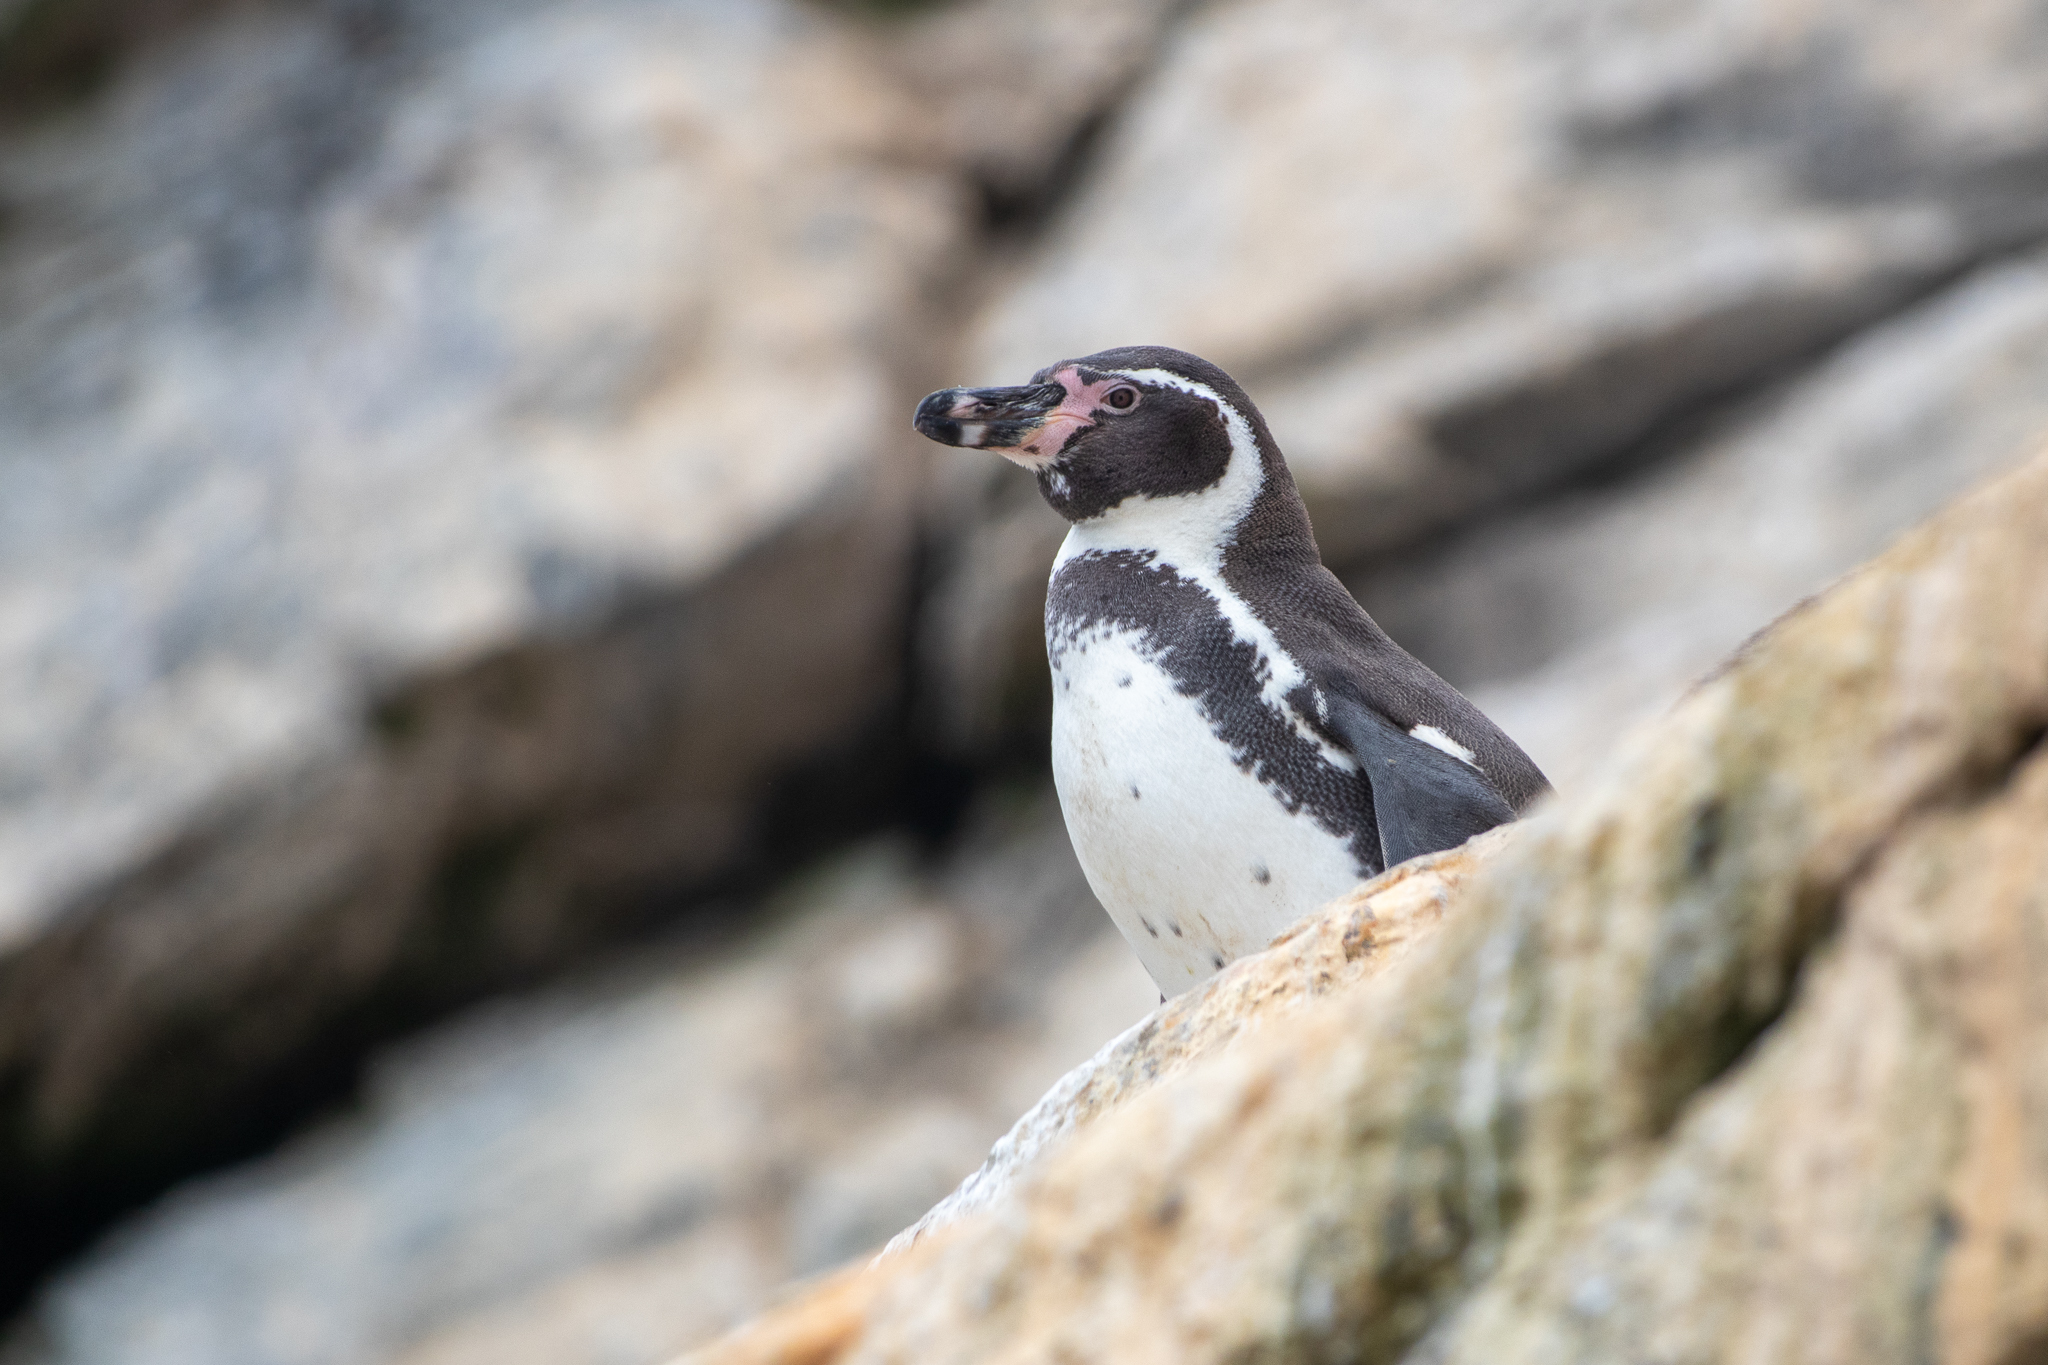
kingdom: Animalia
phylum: Chordata
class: Aves
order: Sphenisciformes
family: Spheniscidae
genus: Spheniscus
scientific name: Spheniscus humboldti
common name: Humboldt penguin
